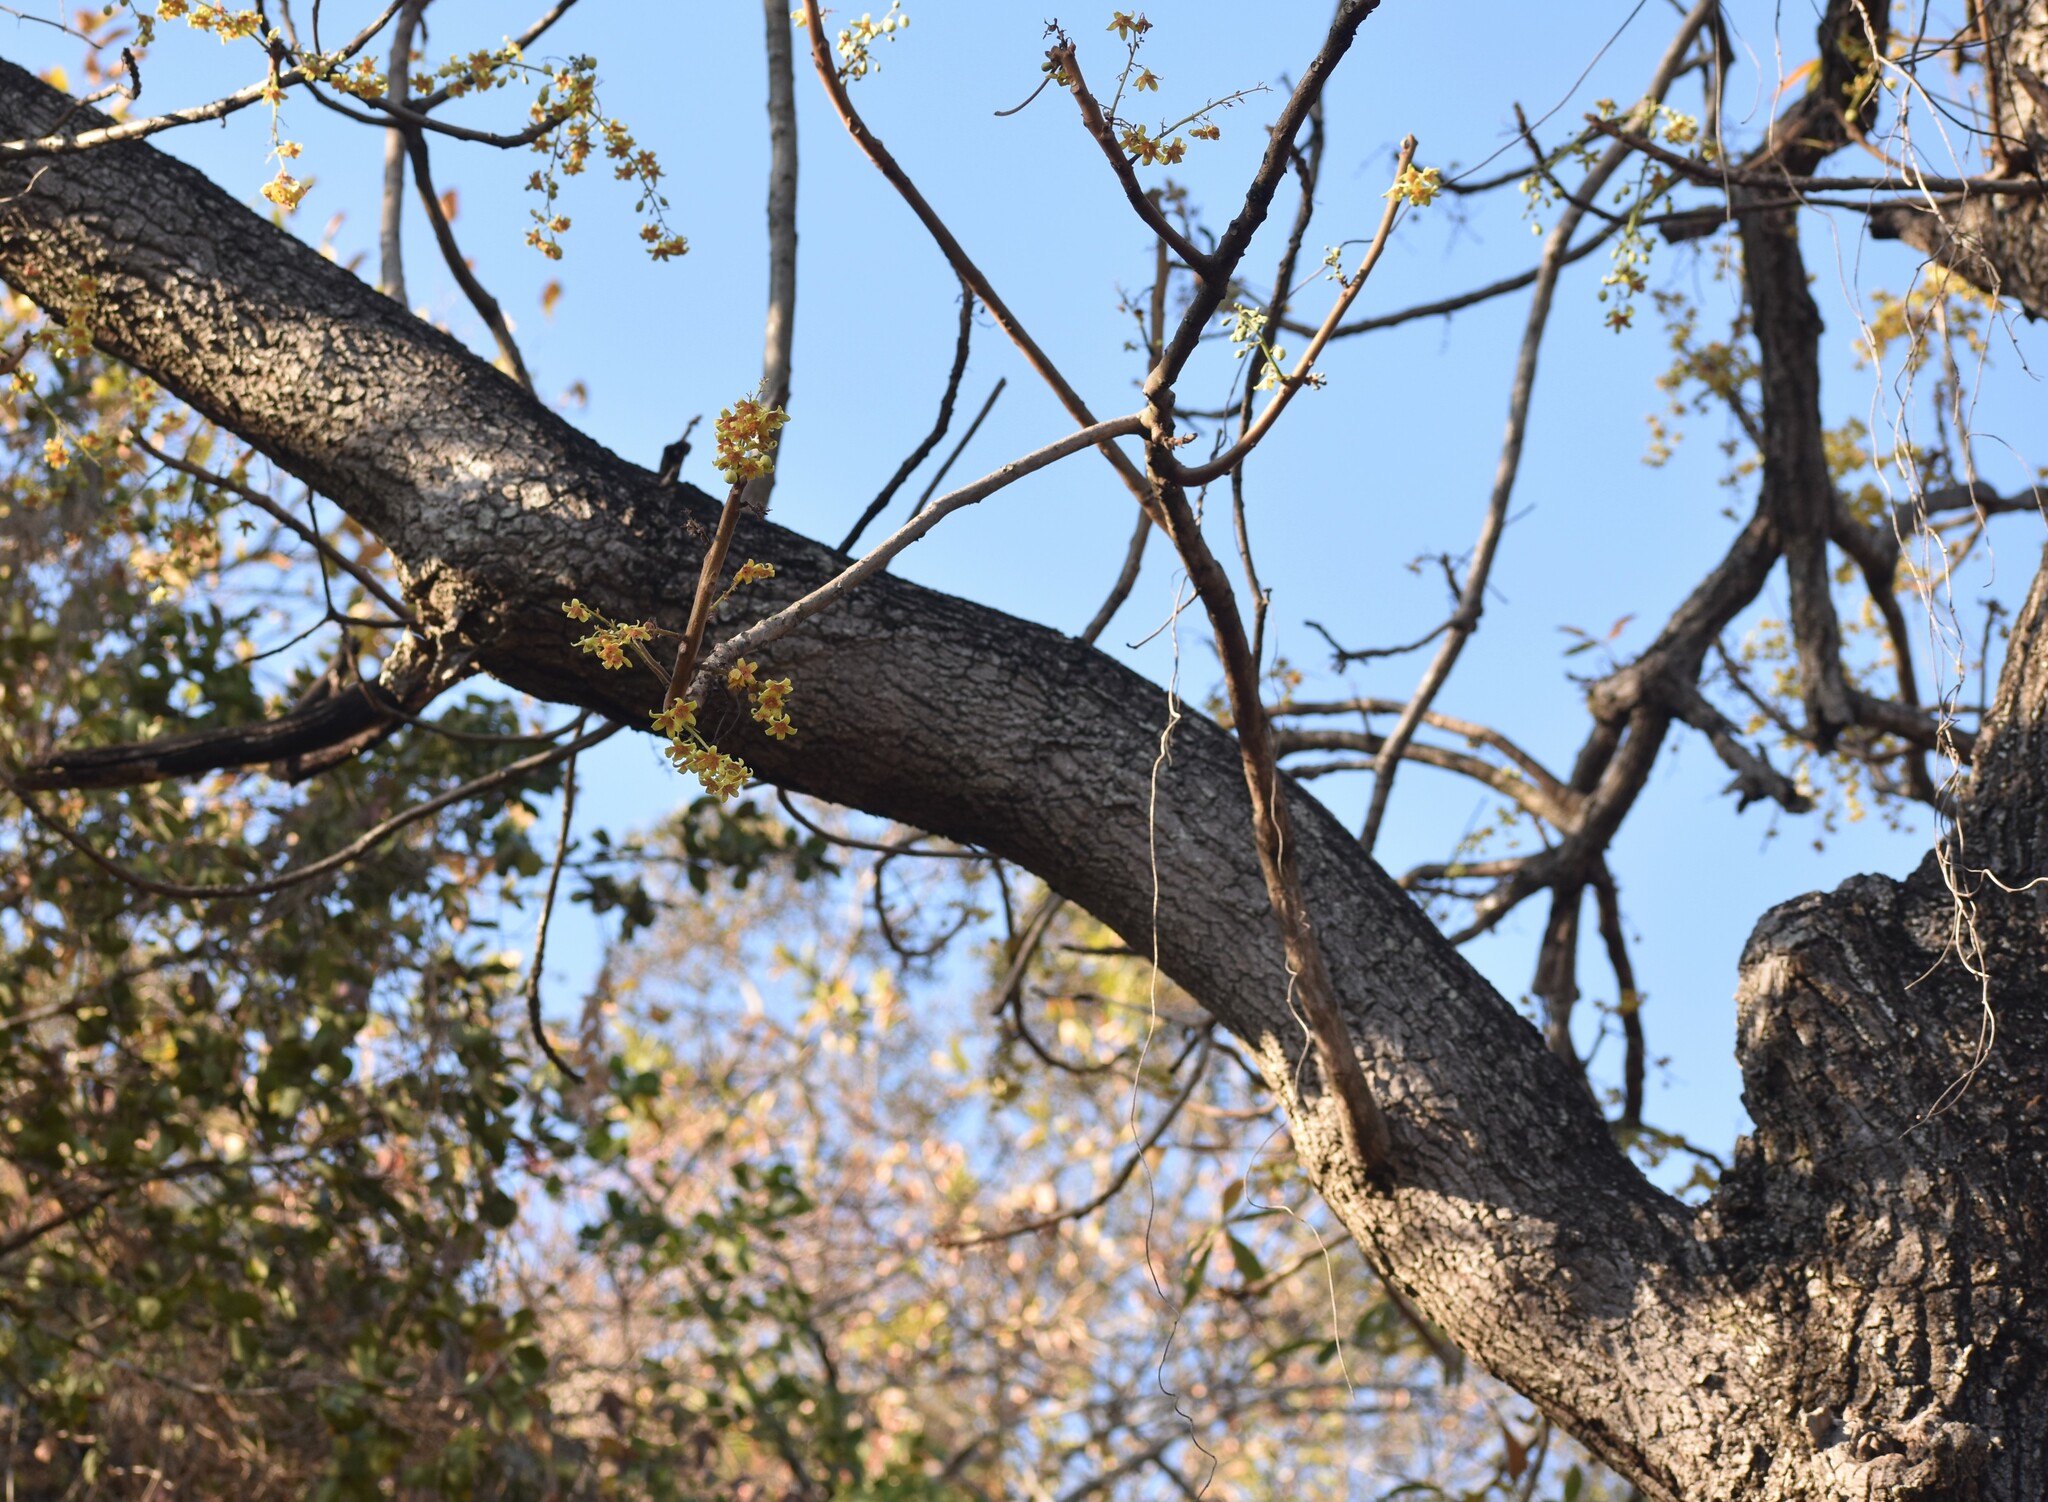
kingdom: Plantae
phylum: Tracheophyta
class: Magnoliopsida
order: Malvales
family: Malvaceae
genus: Sterculia
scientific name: Sterculia murex
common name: Lowveld star-chestnut
